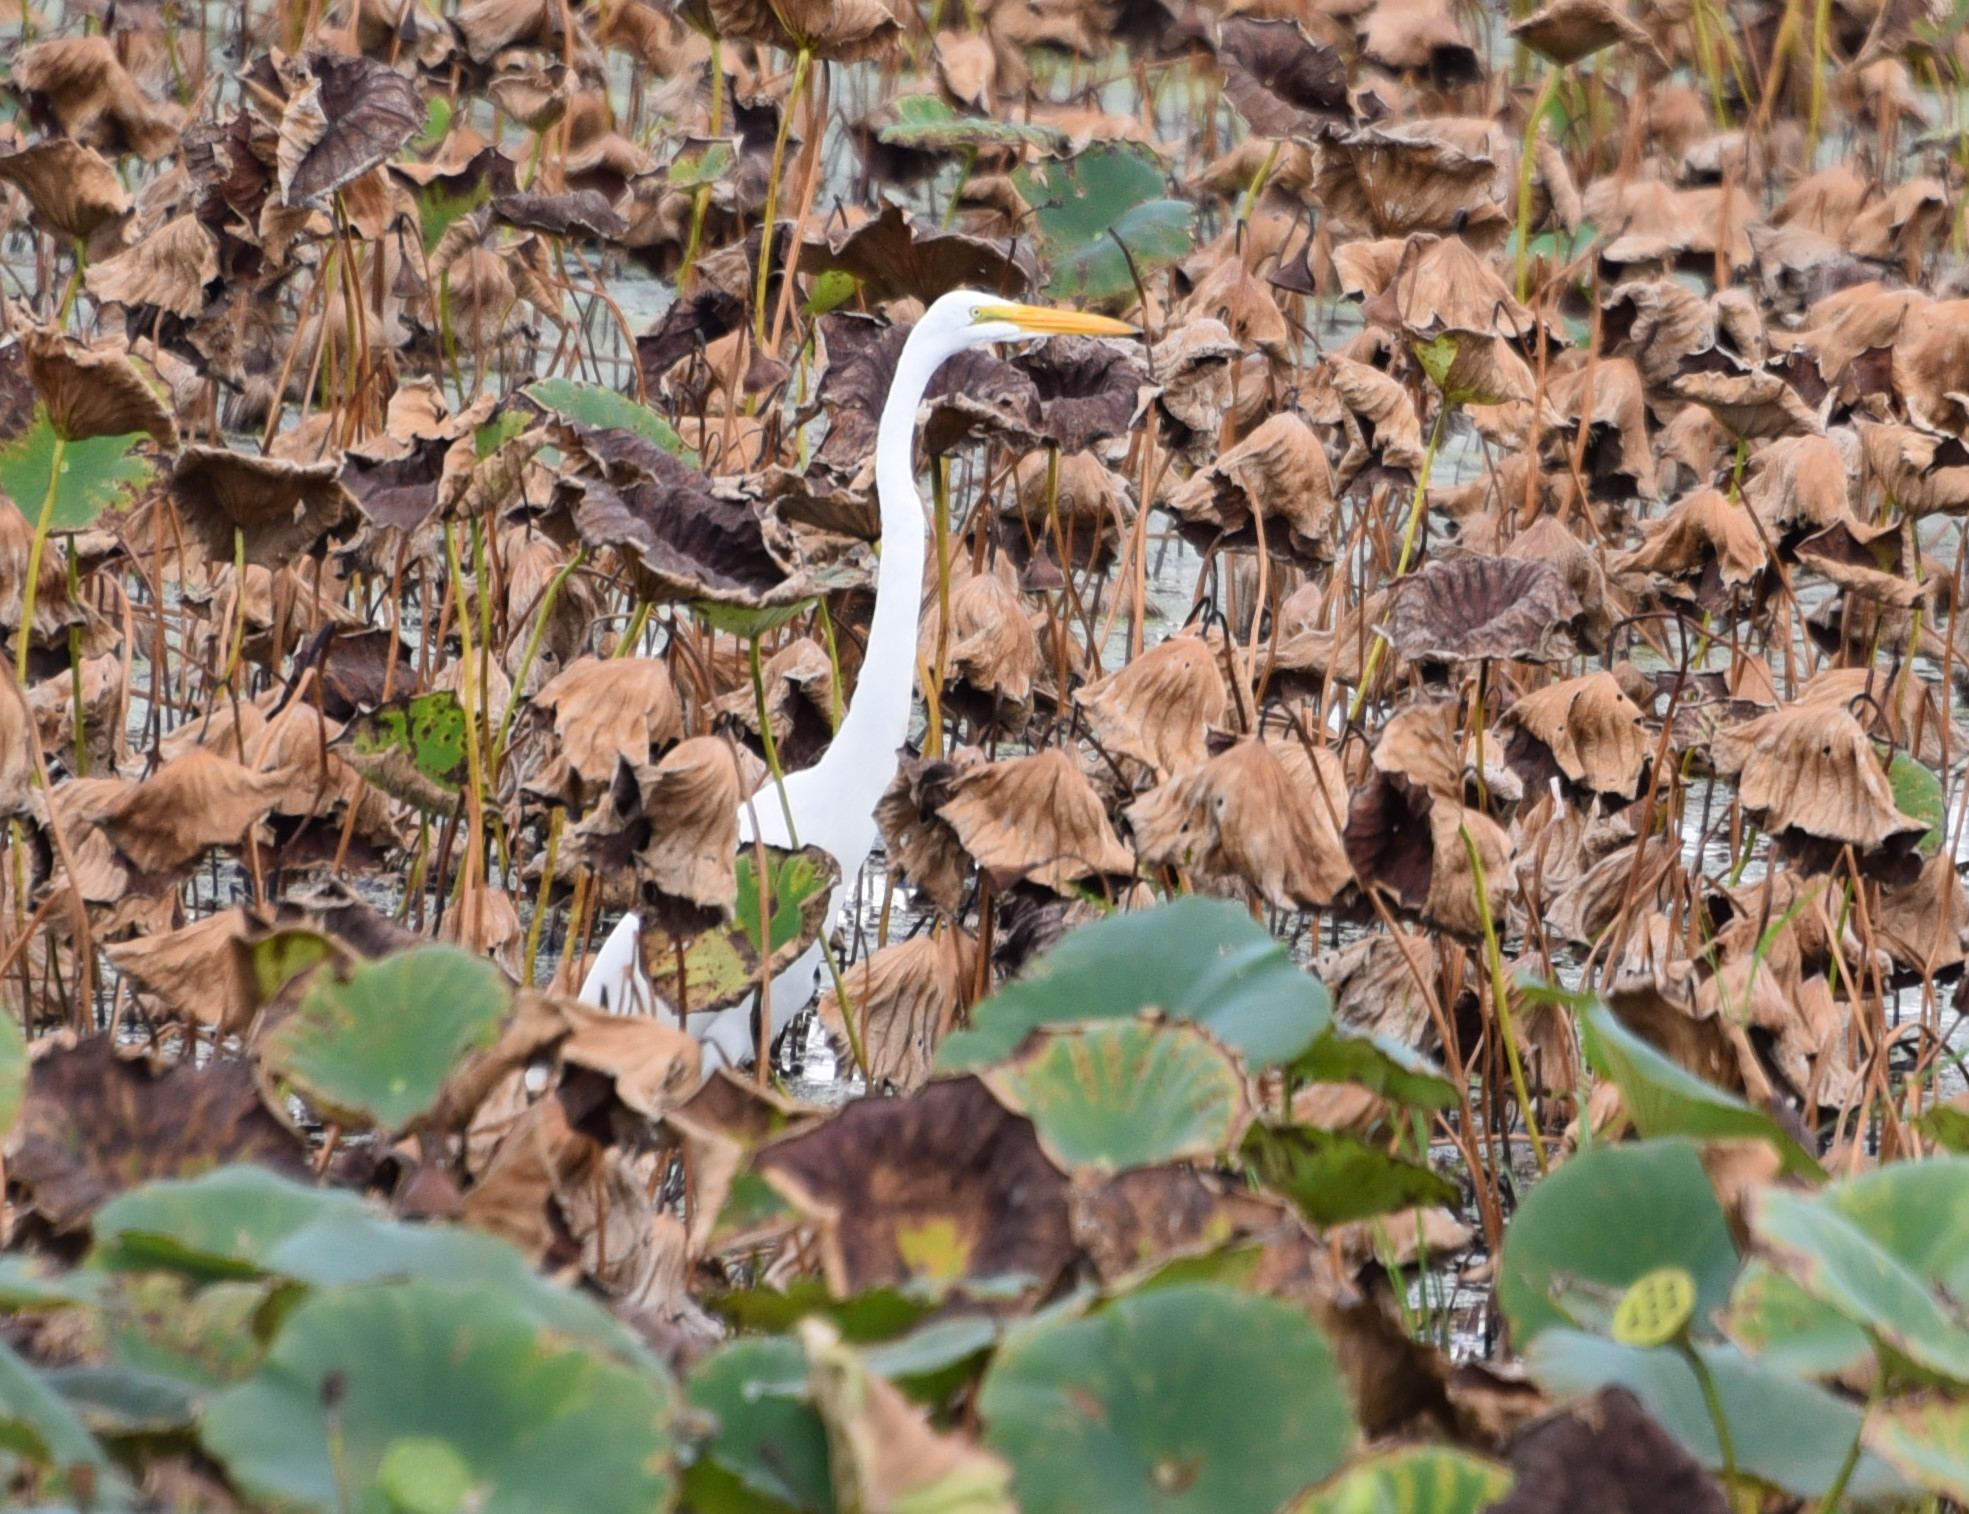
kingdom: Animalia
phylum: Chordata
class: Aves
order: Pelecaniformes
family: Ardeidae
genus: Ardea
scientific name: Ardea alba
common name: Great egret
